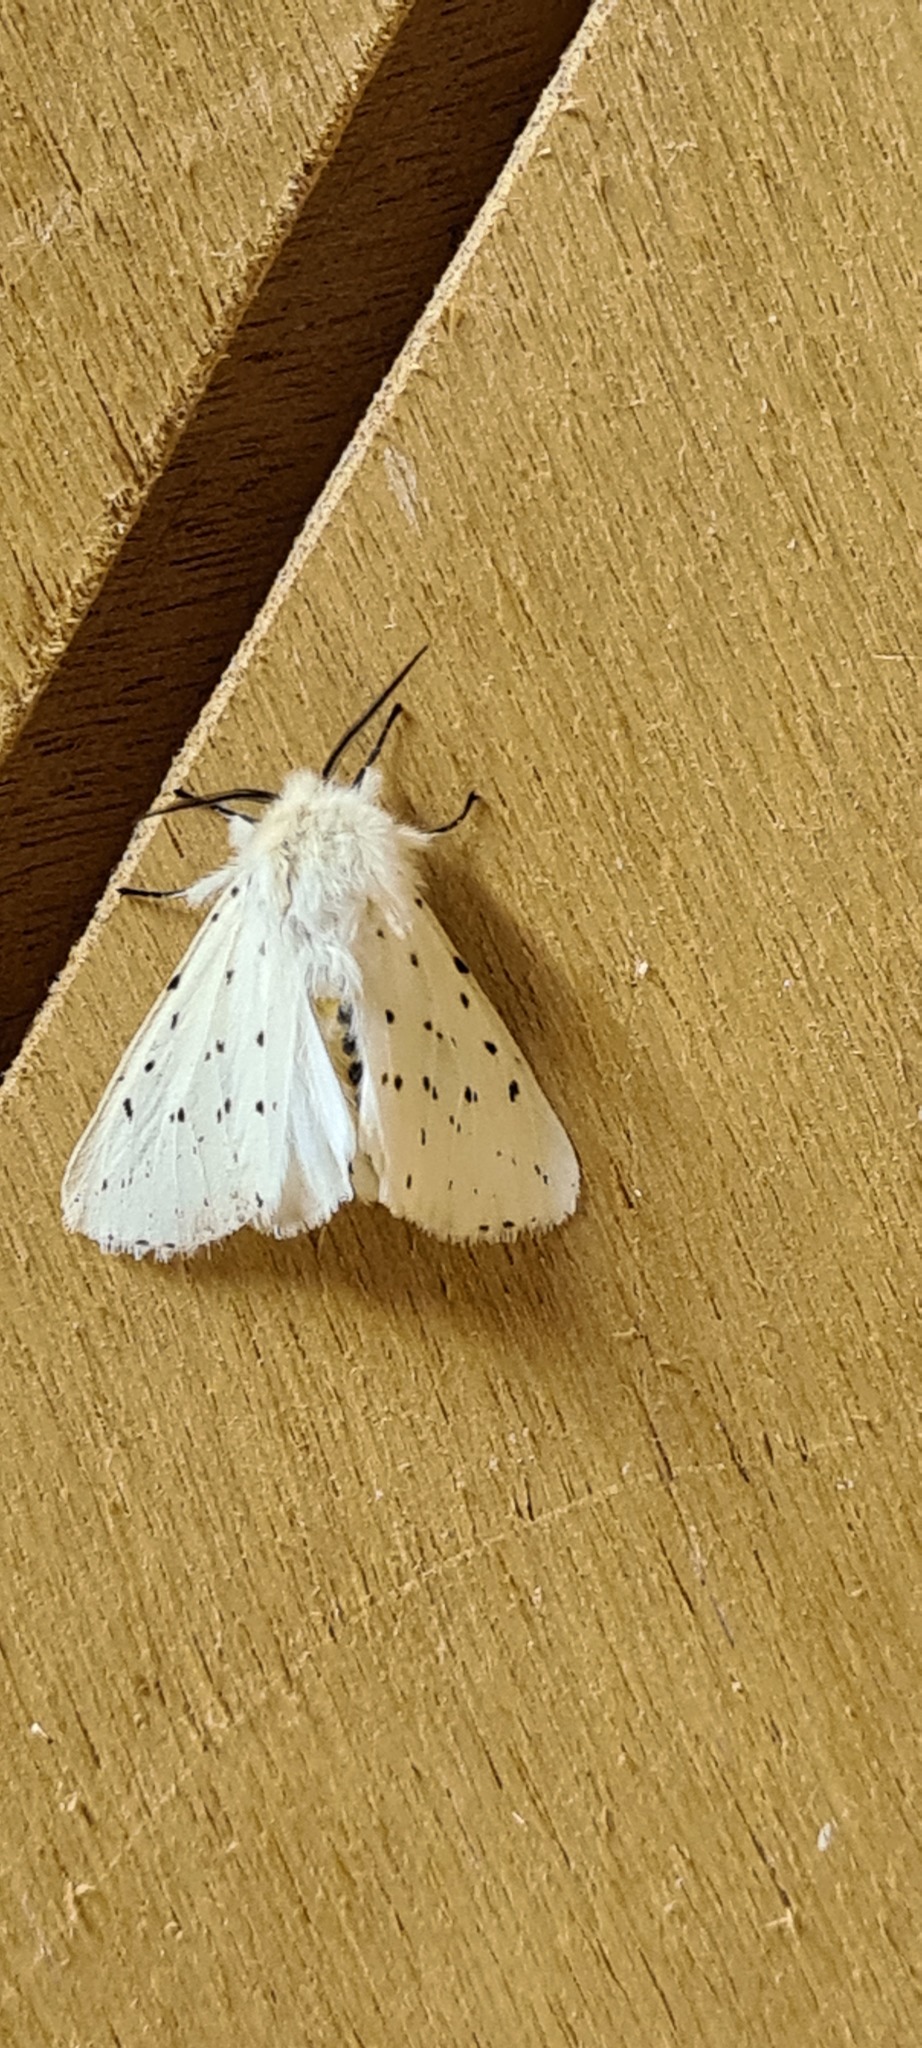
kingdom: Animalia
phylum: Arthropoda
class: Insecta
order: Lepidoptera
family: Erebidae
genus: Spilosoma
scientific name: Spilosoma lubricipeda
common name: White ermine
